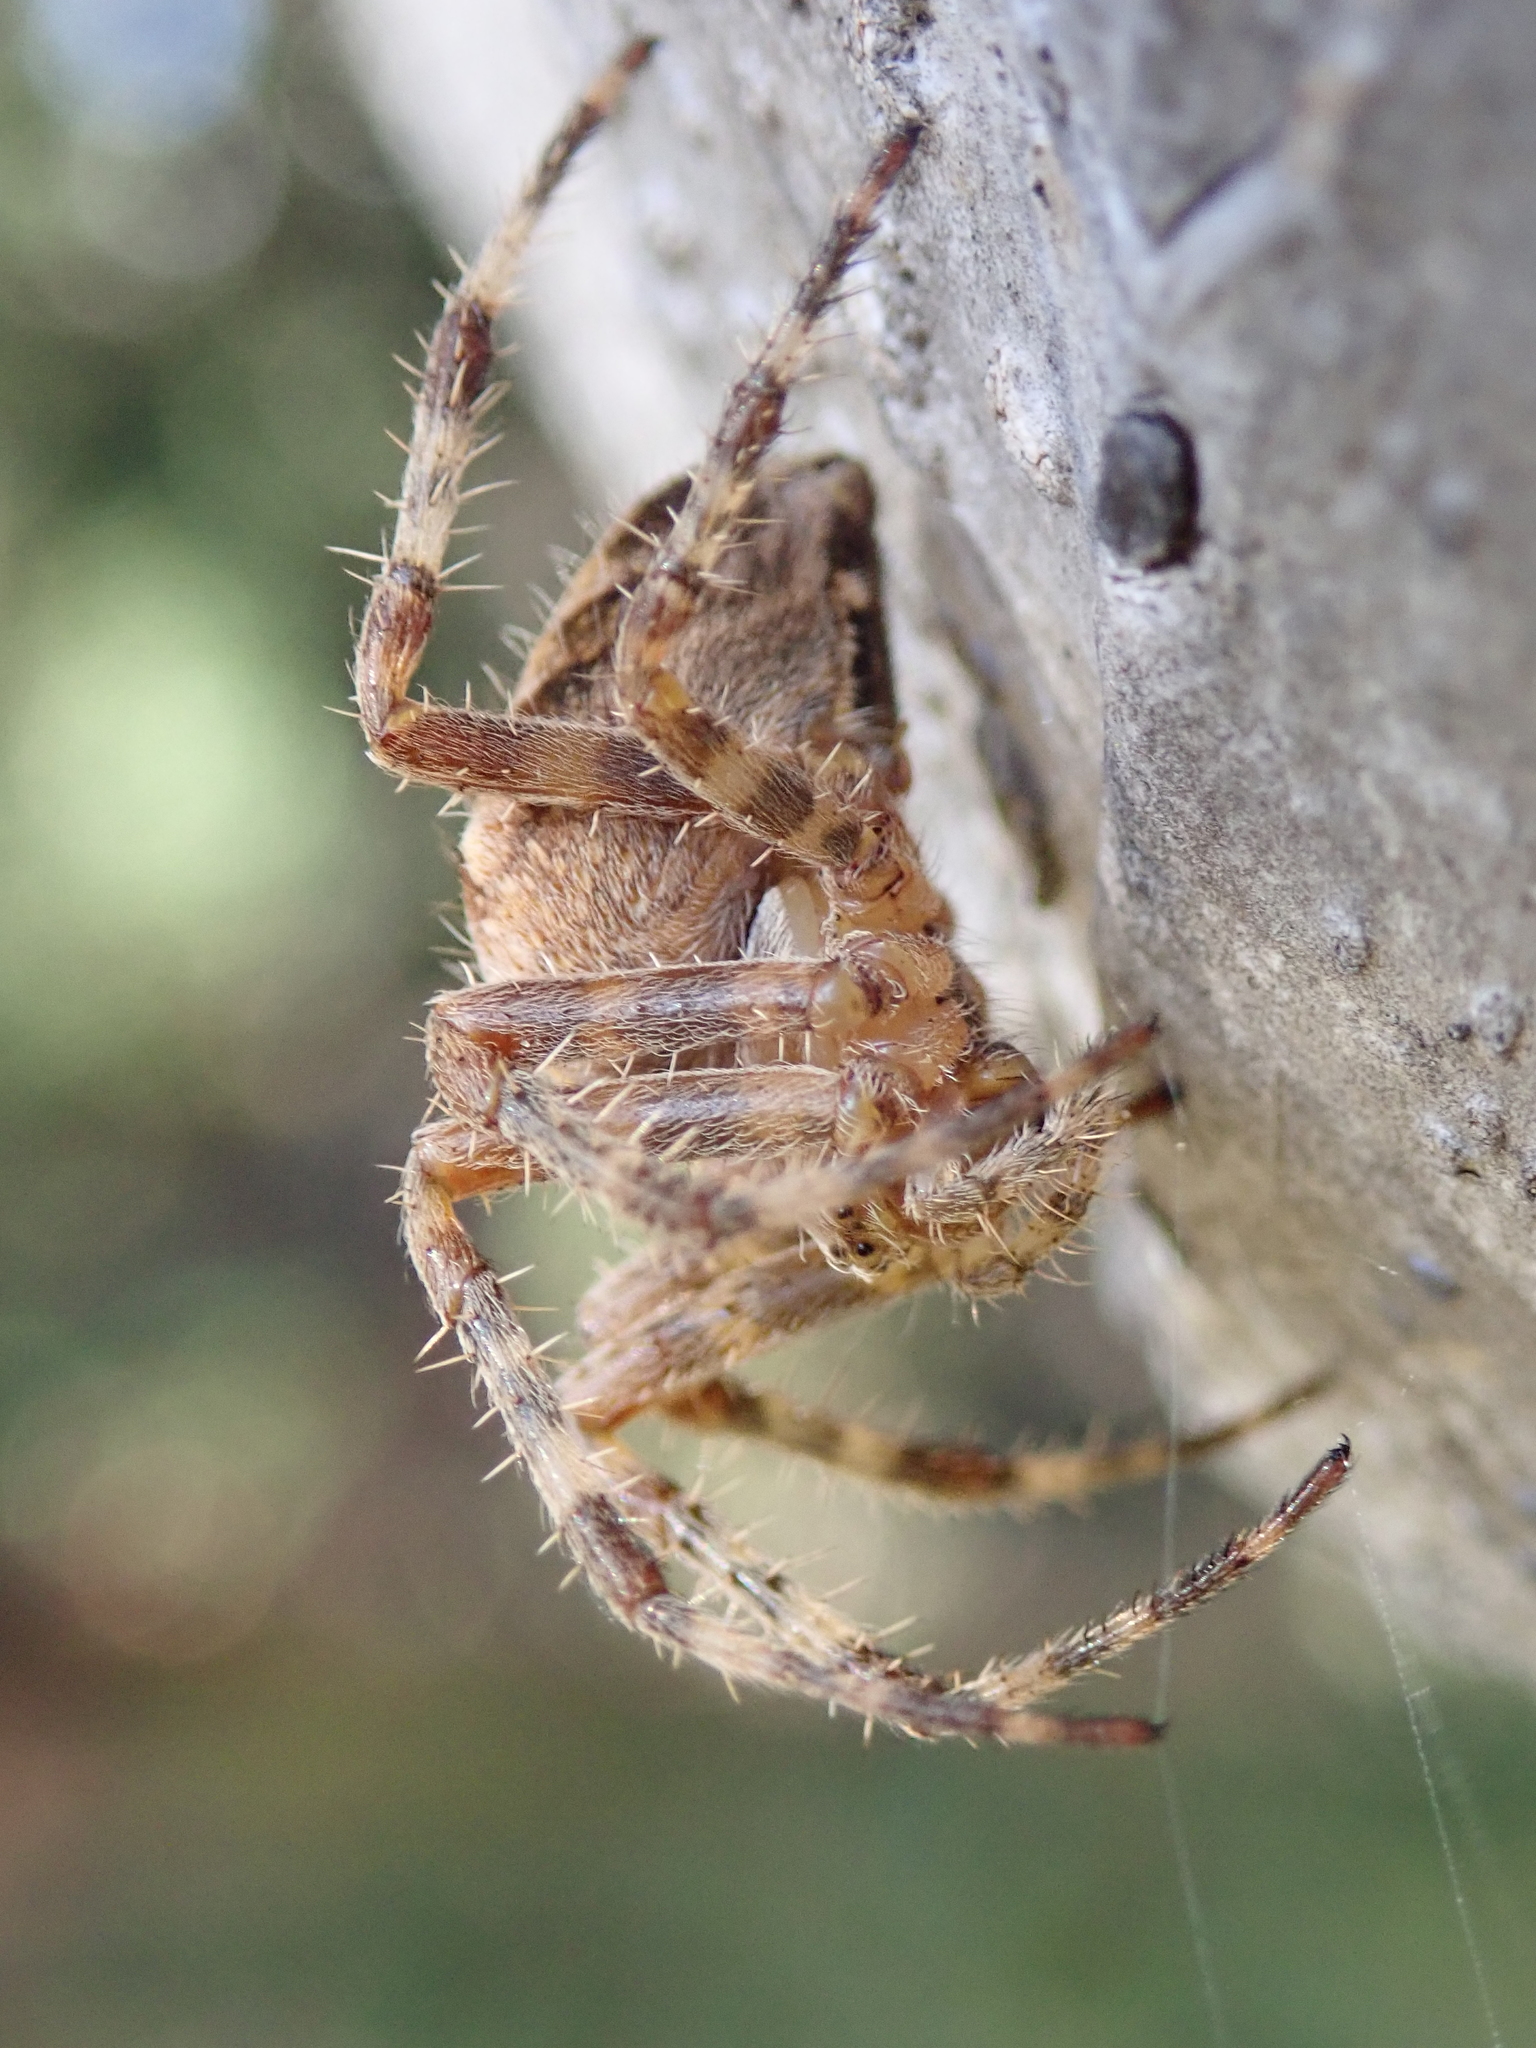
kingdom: Animalia
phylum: Arthropoda
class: Arachnida
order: Araneae
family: Araneidae
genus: Araneus
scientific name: Araneus diadematus
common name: Cross orbweaver
